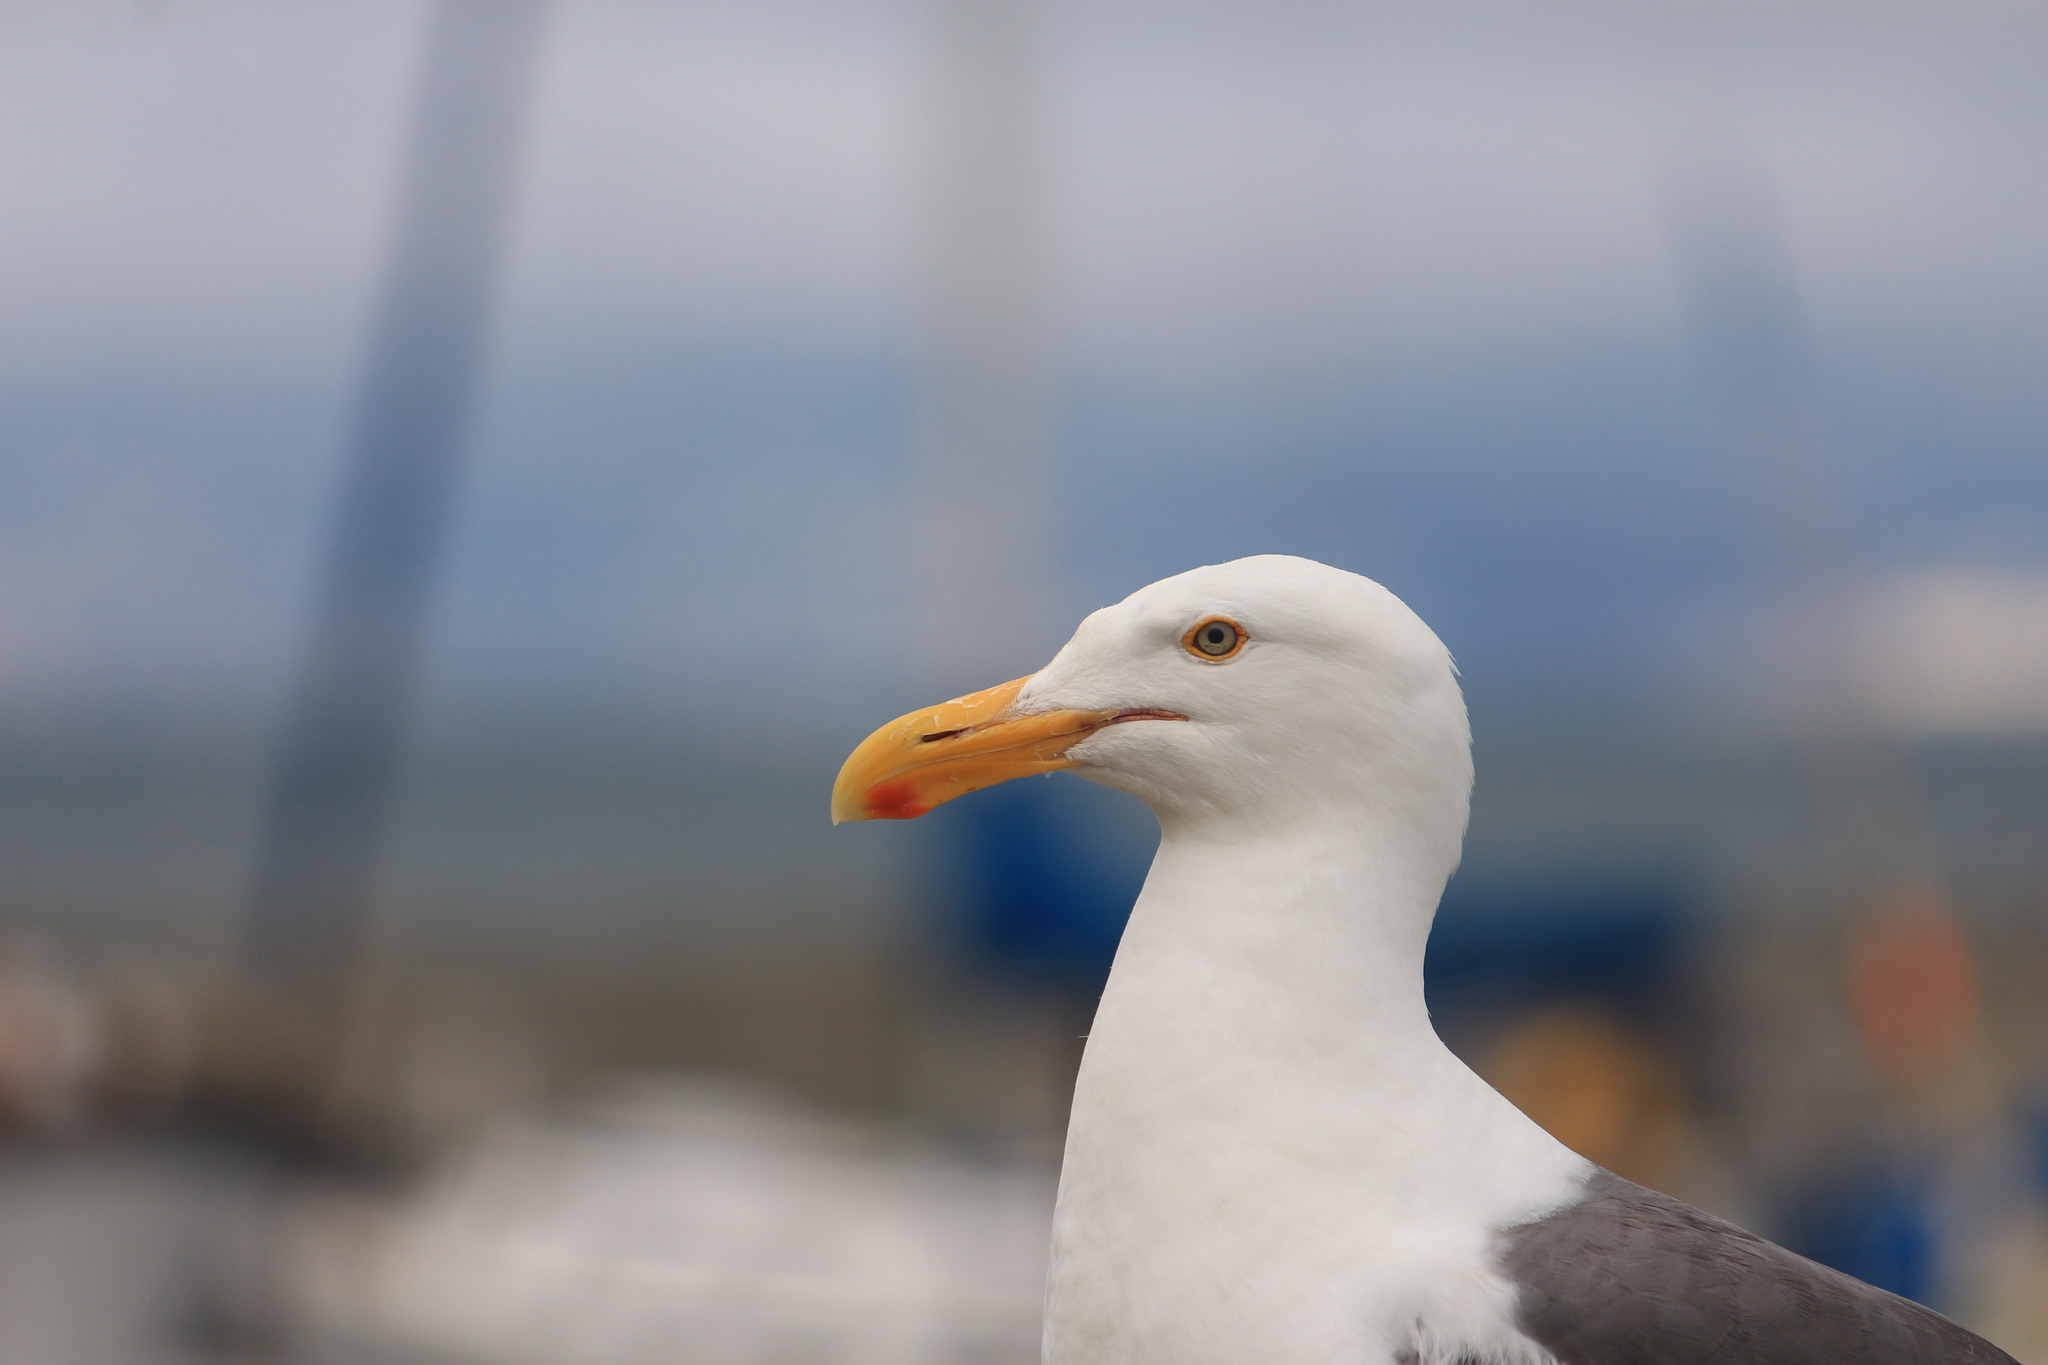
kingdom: Animalia
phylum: Chordata
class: Aves
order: Charadriiformes
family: Laridae
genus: Larus
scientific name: Larus occidentalis
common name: Western gull
